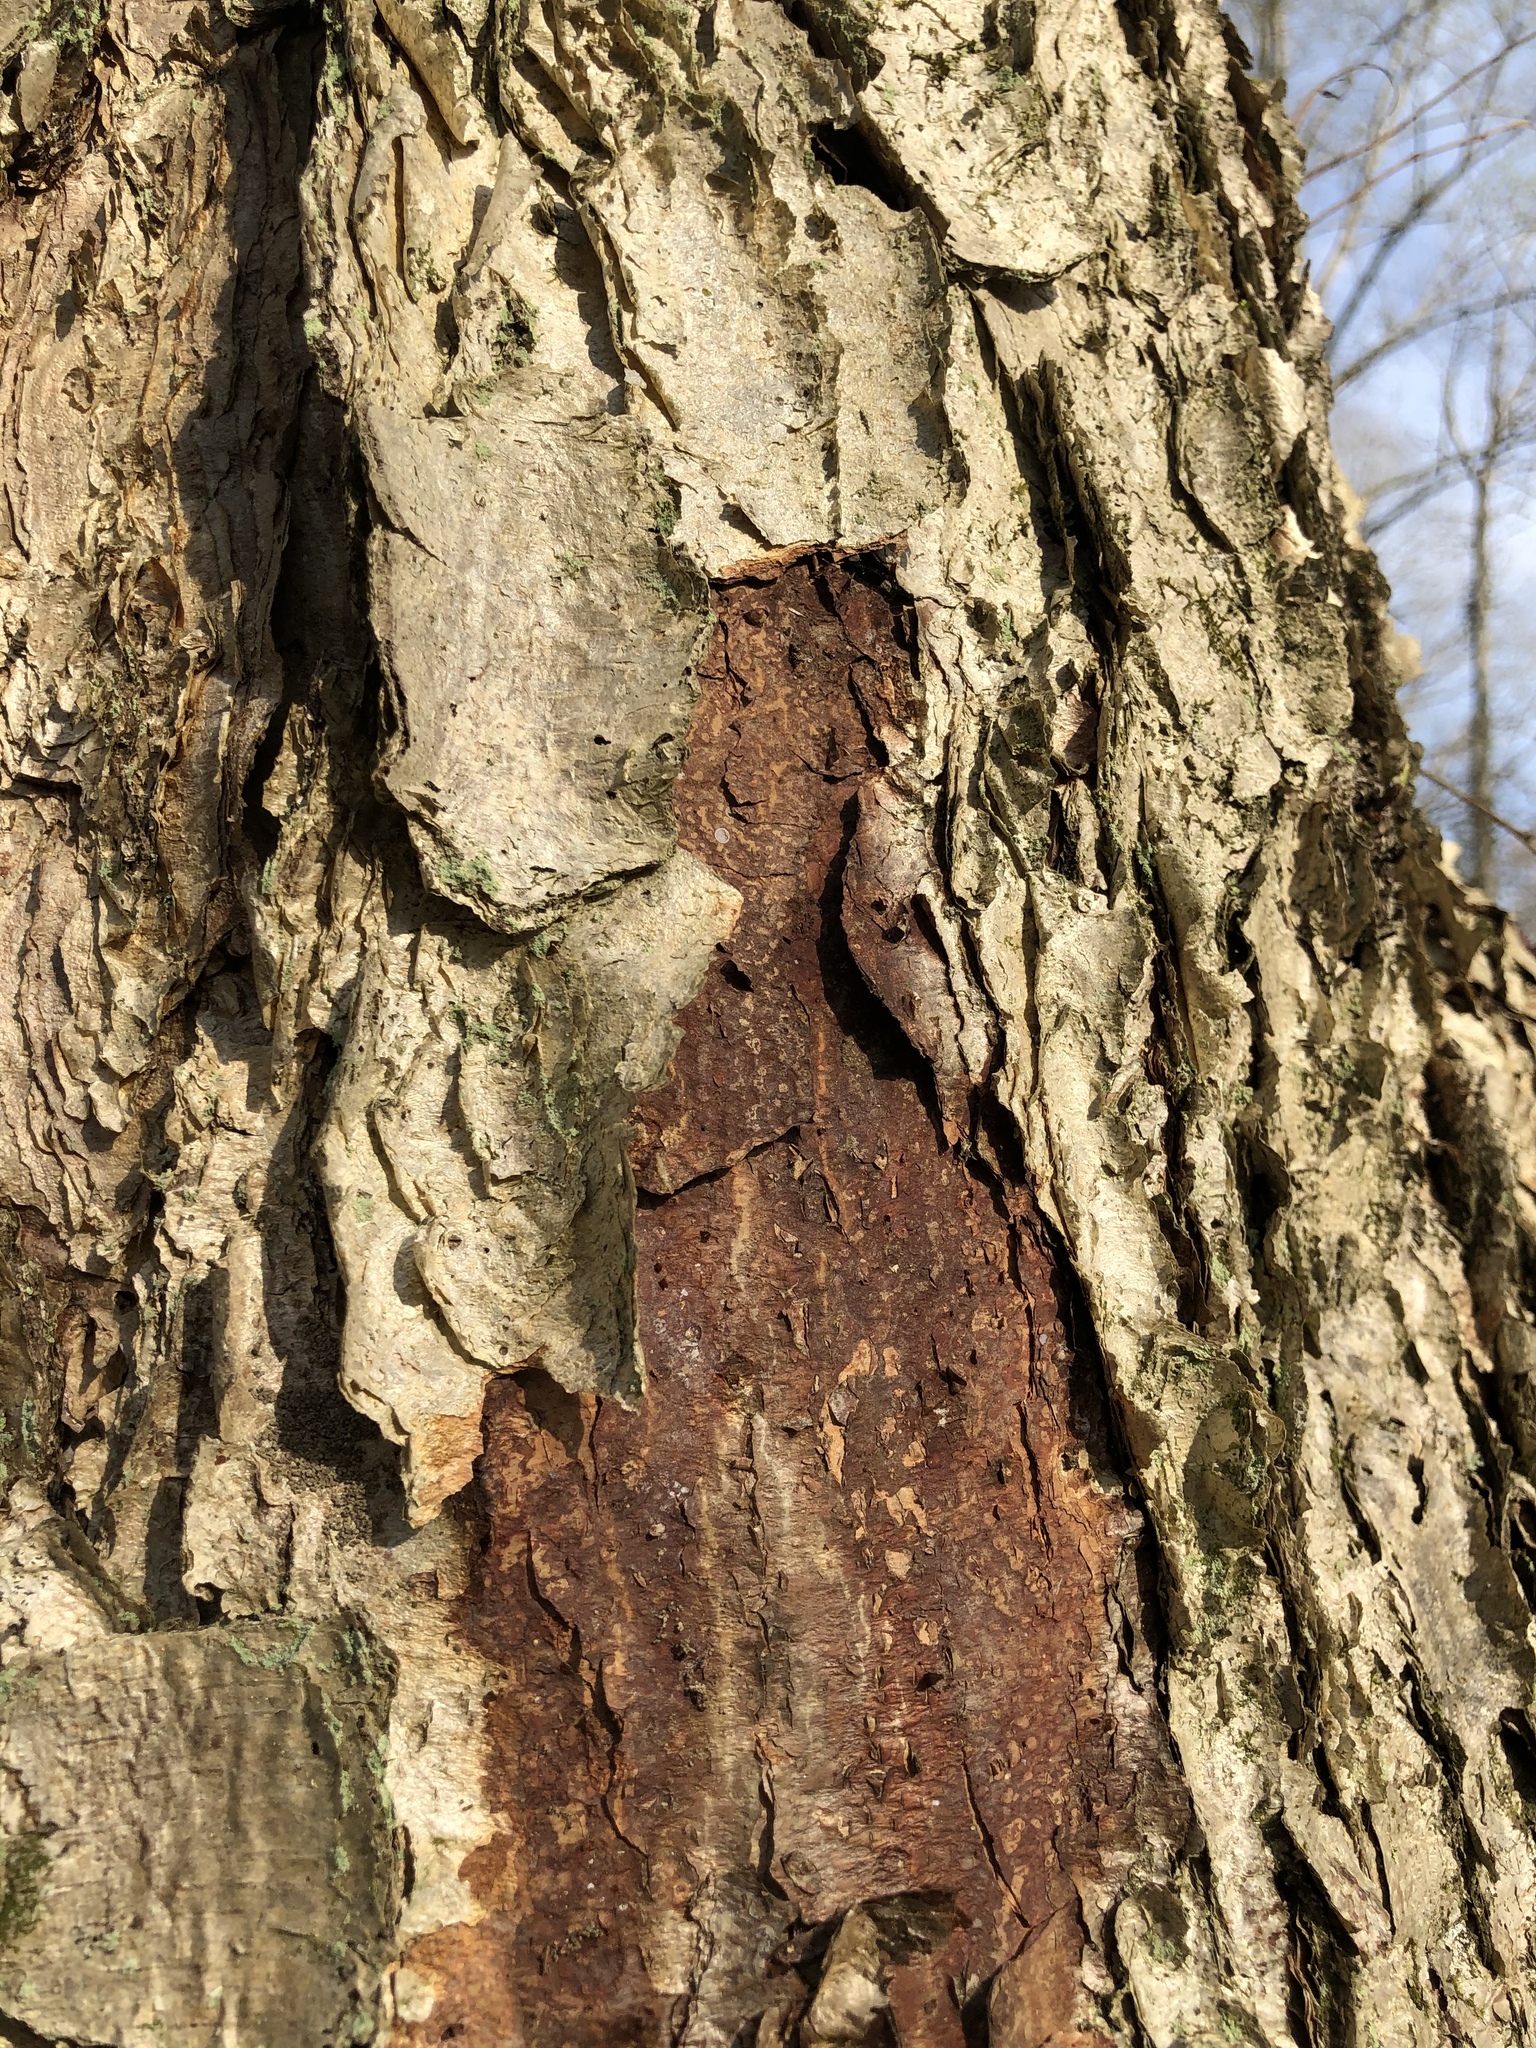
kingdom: Plantae
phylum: Tracheophyta
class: Magnoliopsida
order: Fagales
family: Betulaceae
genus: Betula
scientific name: Betula nigra
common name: Black birch
